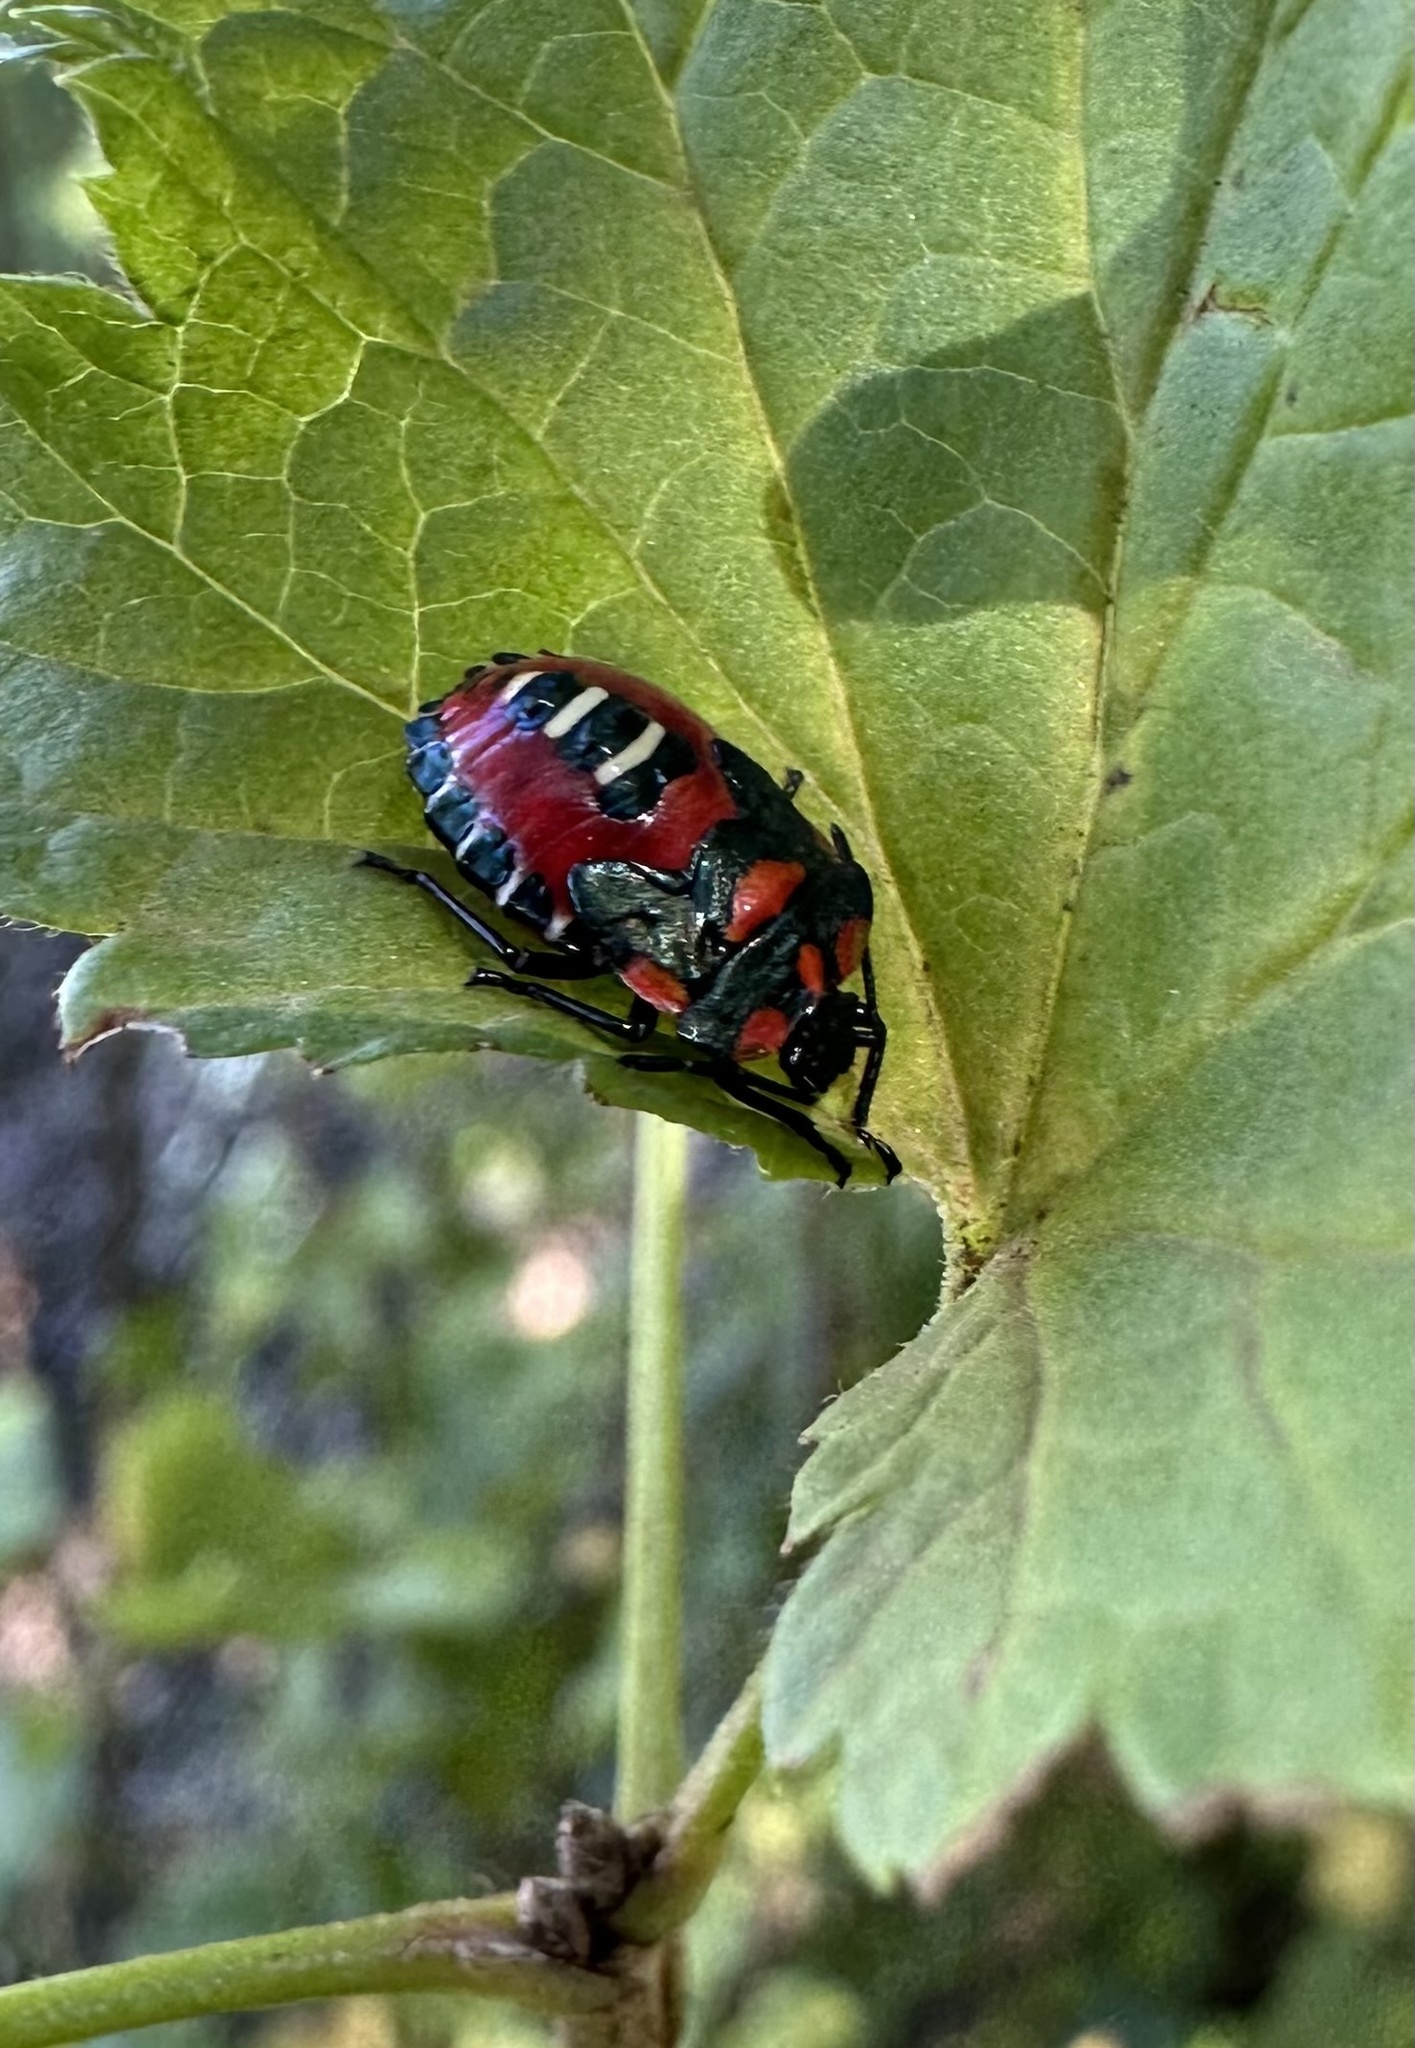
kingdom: Animalia
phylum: Arthropoda
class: Insecta
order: Hemiptera
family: Pentatomidae
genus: Tylospilus
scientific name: Tylospilus
